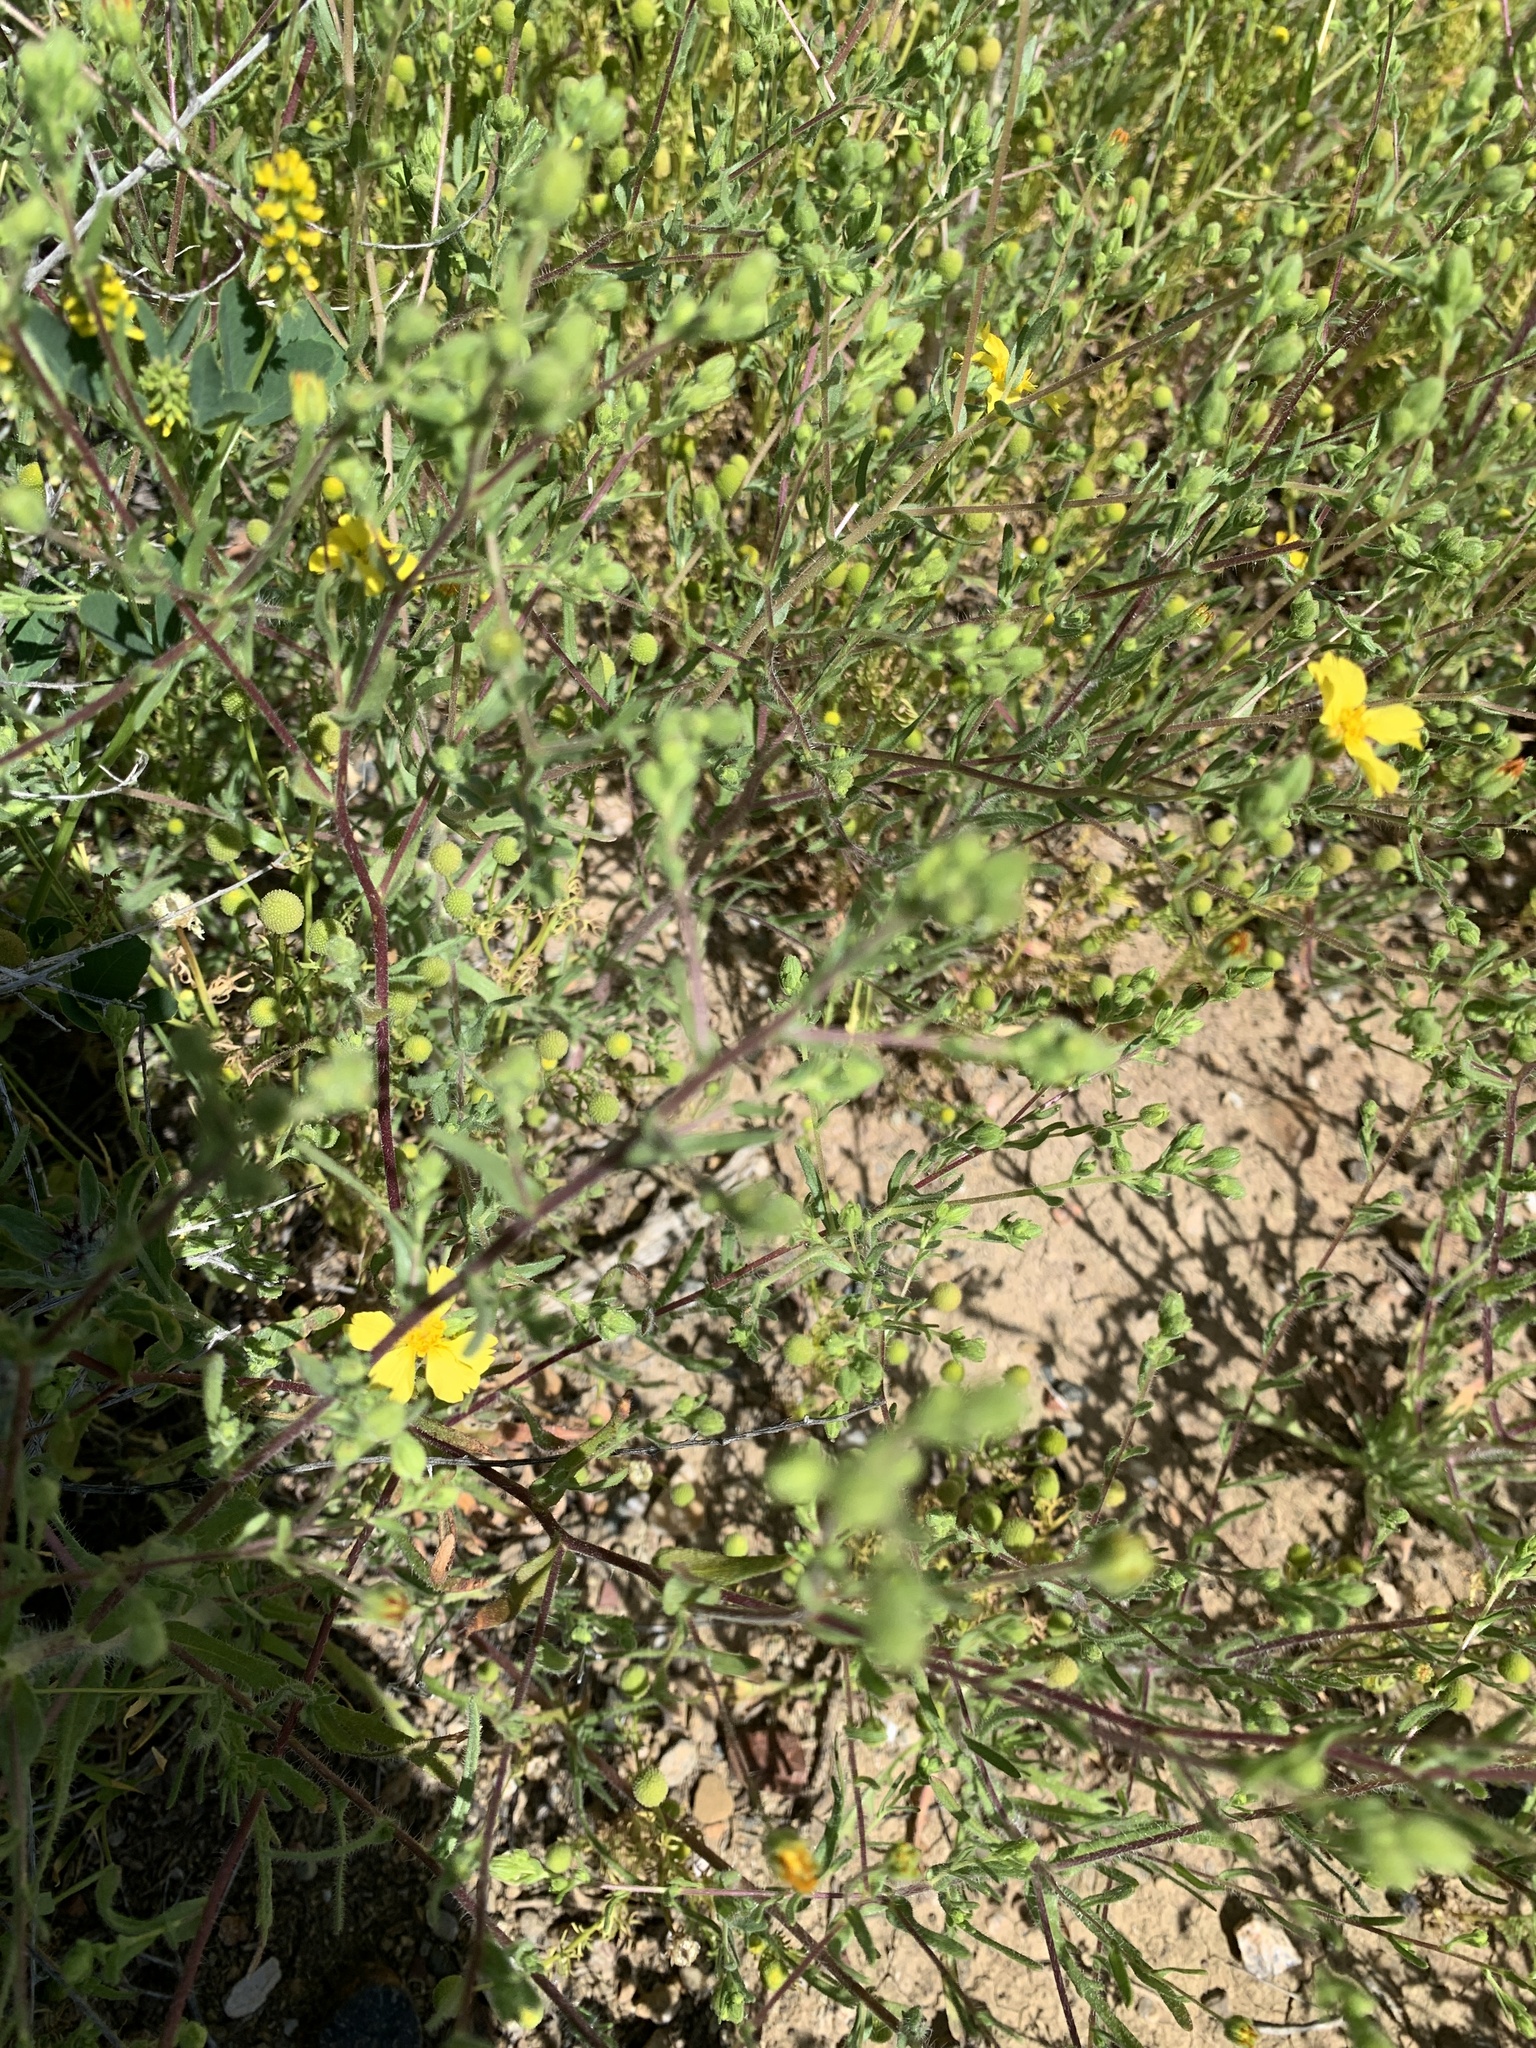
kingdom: Plantae
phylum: Tracheophyta
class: Magnoliopsida
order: Asterales
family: Asteraceae
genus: Deinandra
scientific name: Deinandra kelloggii
